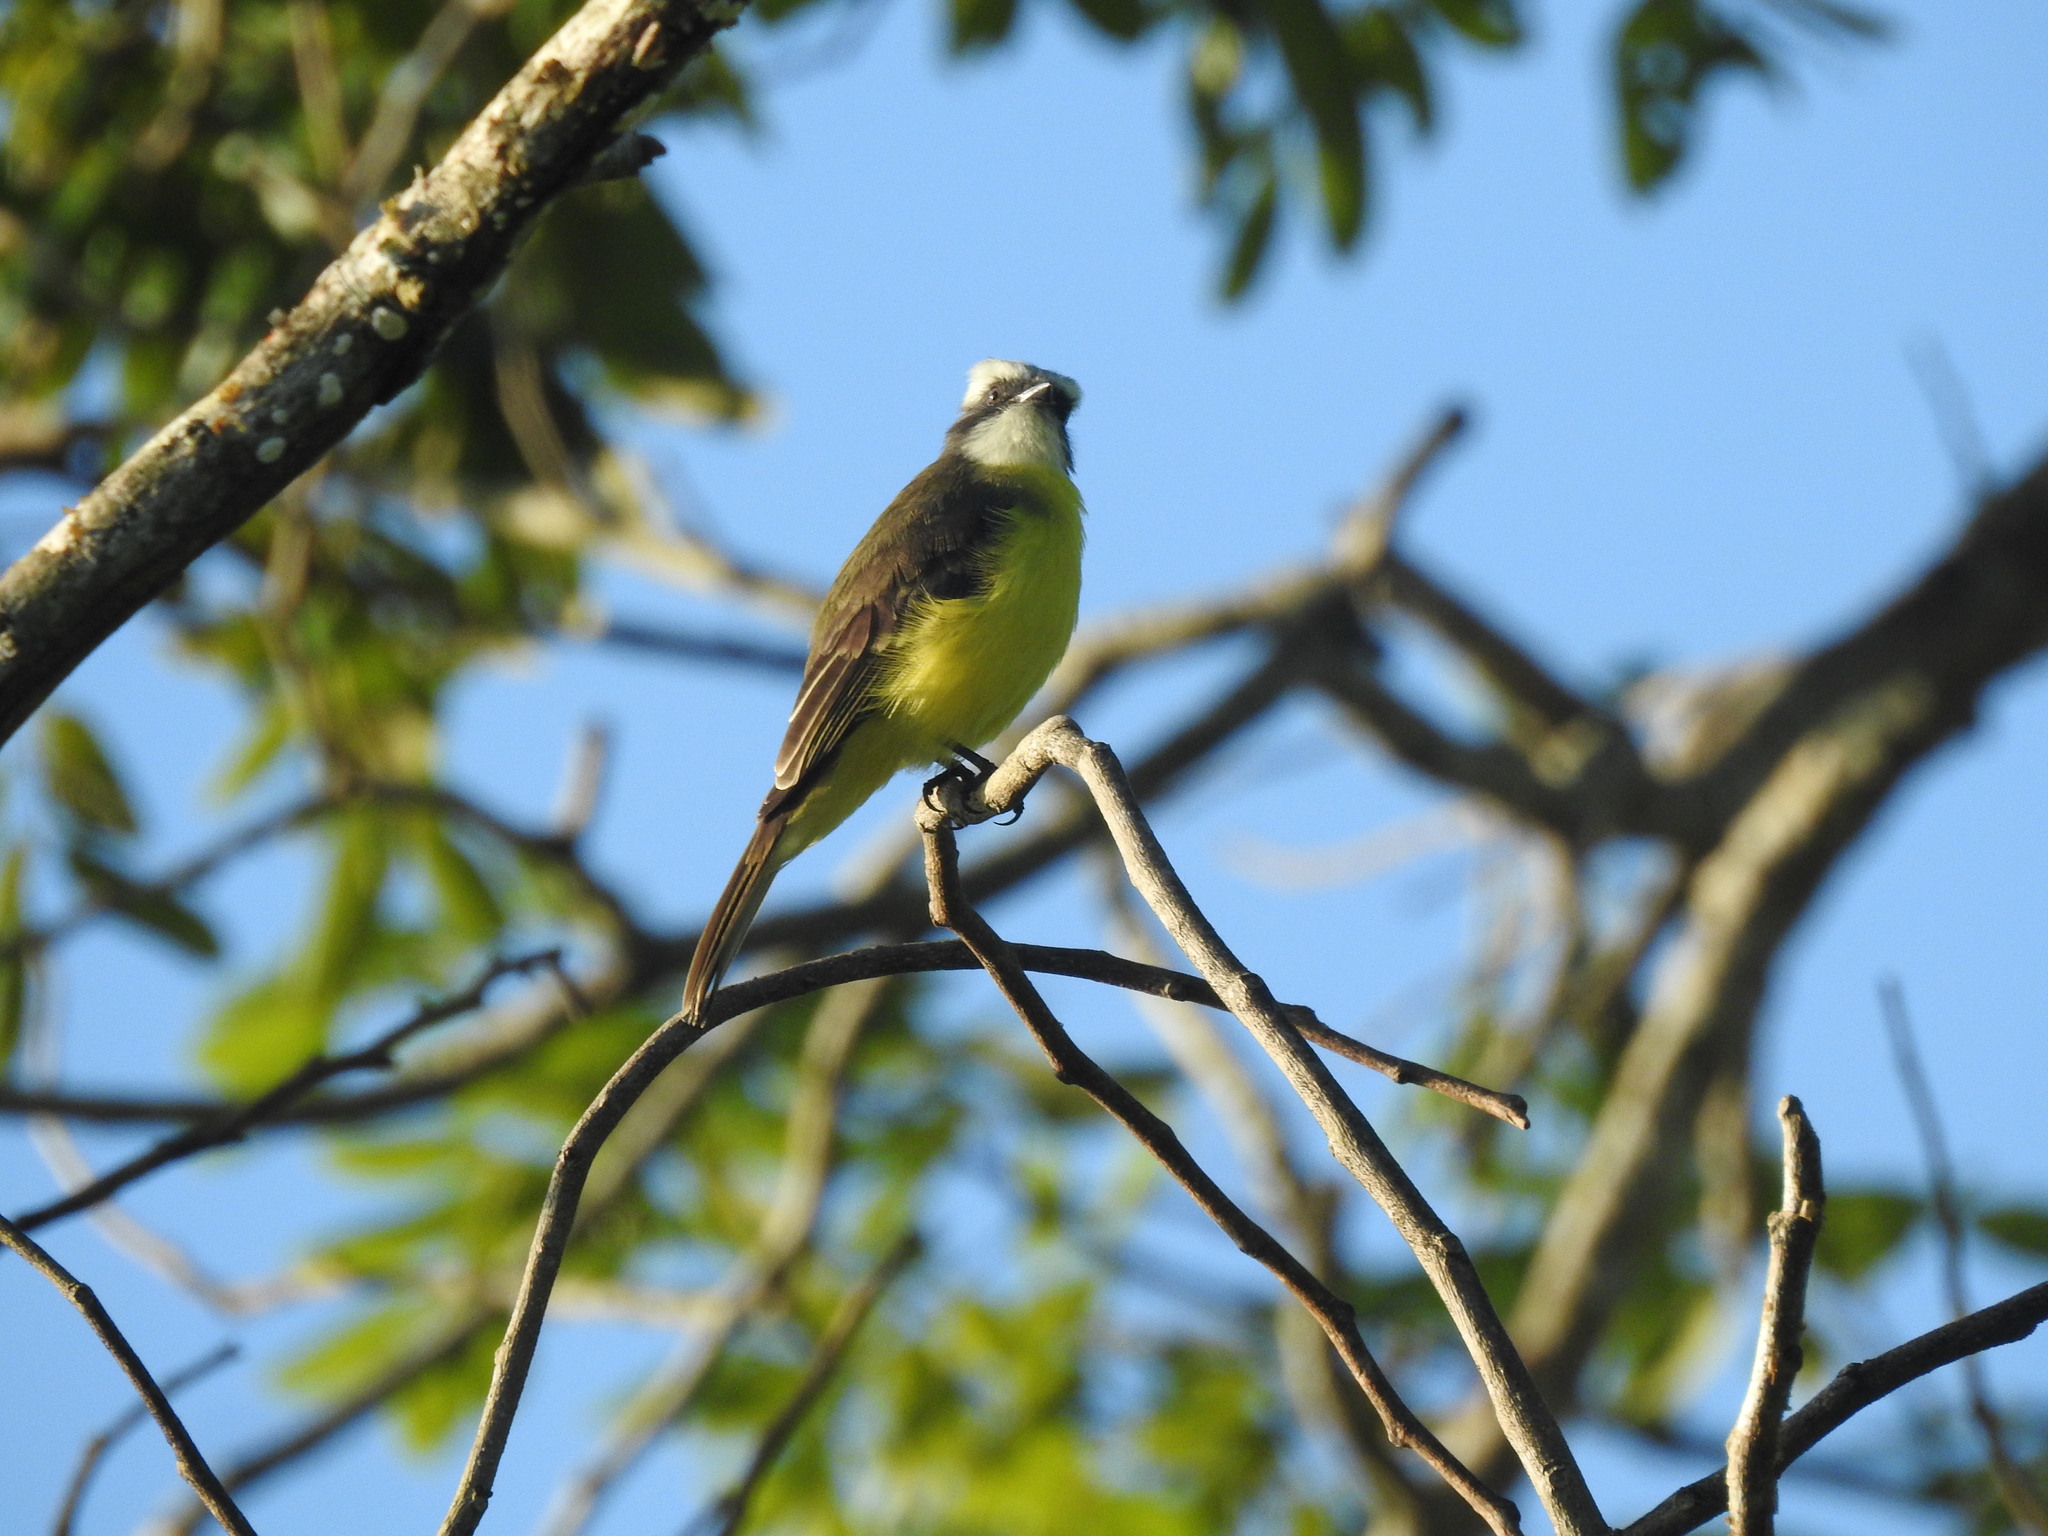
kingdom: Animalia
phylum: Chordata
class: Aves
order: Passeriformes
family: Tyrannidae
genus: Myiozetetes
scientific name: Myiozetetes similis
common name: Social flycatcher
